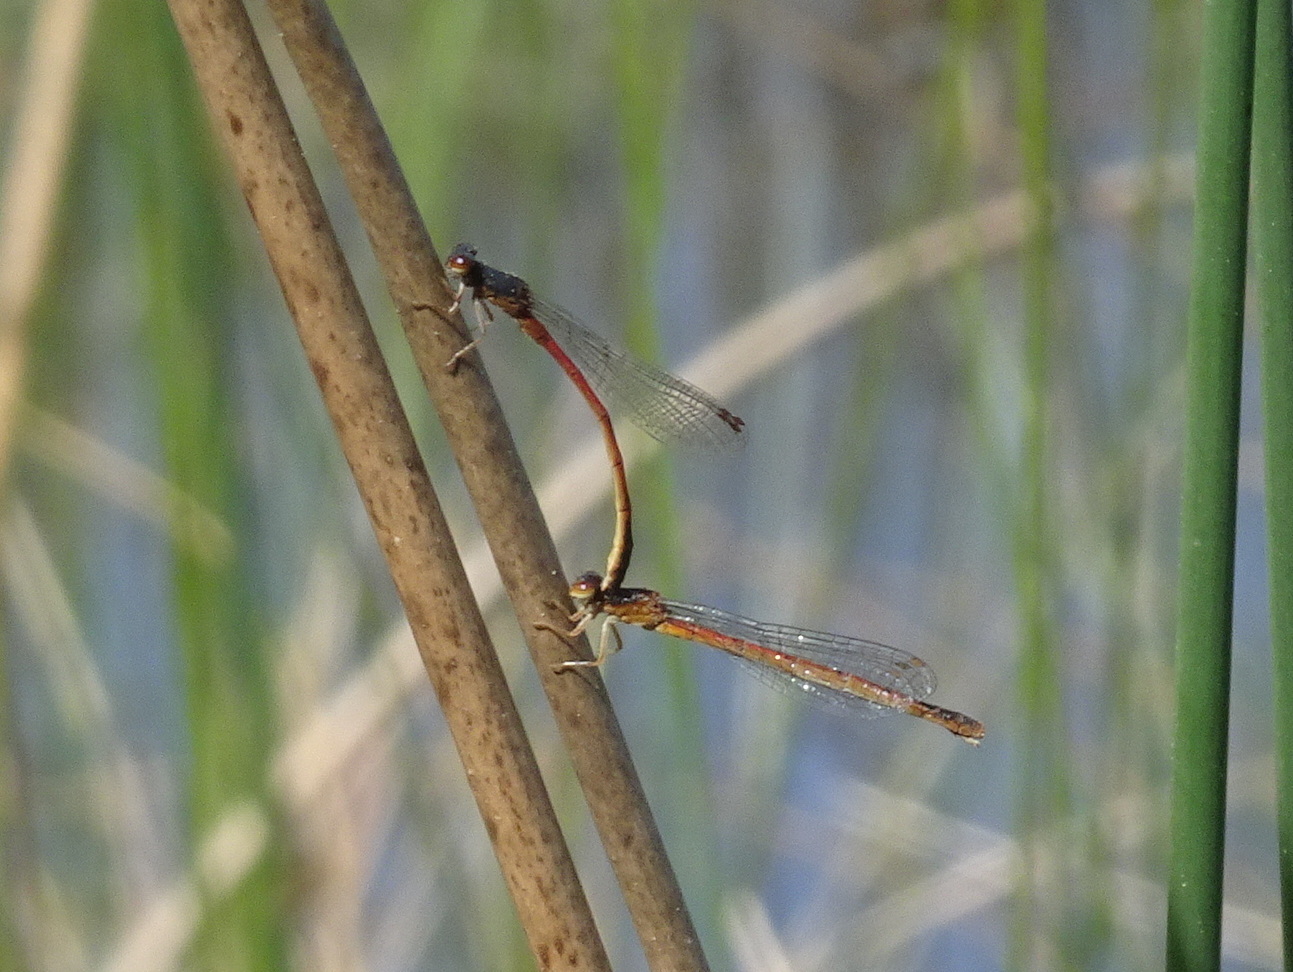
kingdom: Animalia
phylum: Arthropoda
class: Insecta
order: Odonata
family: Coenagrionidae
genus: Amphiagrion
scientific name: Amphiagrion saucium
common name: Eastern red damsel
